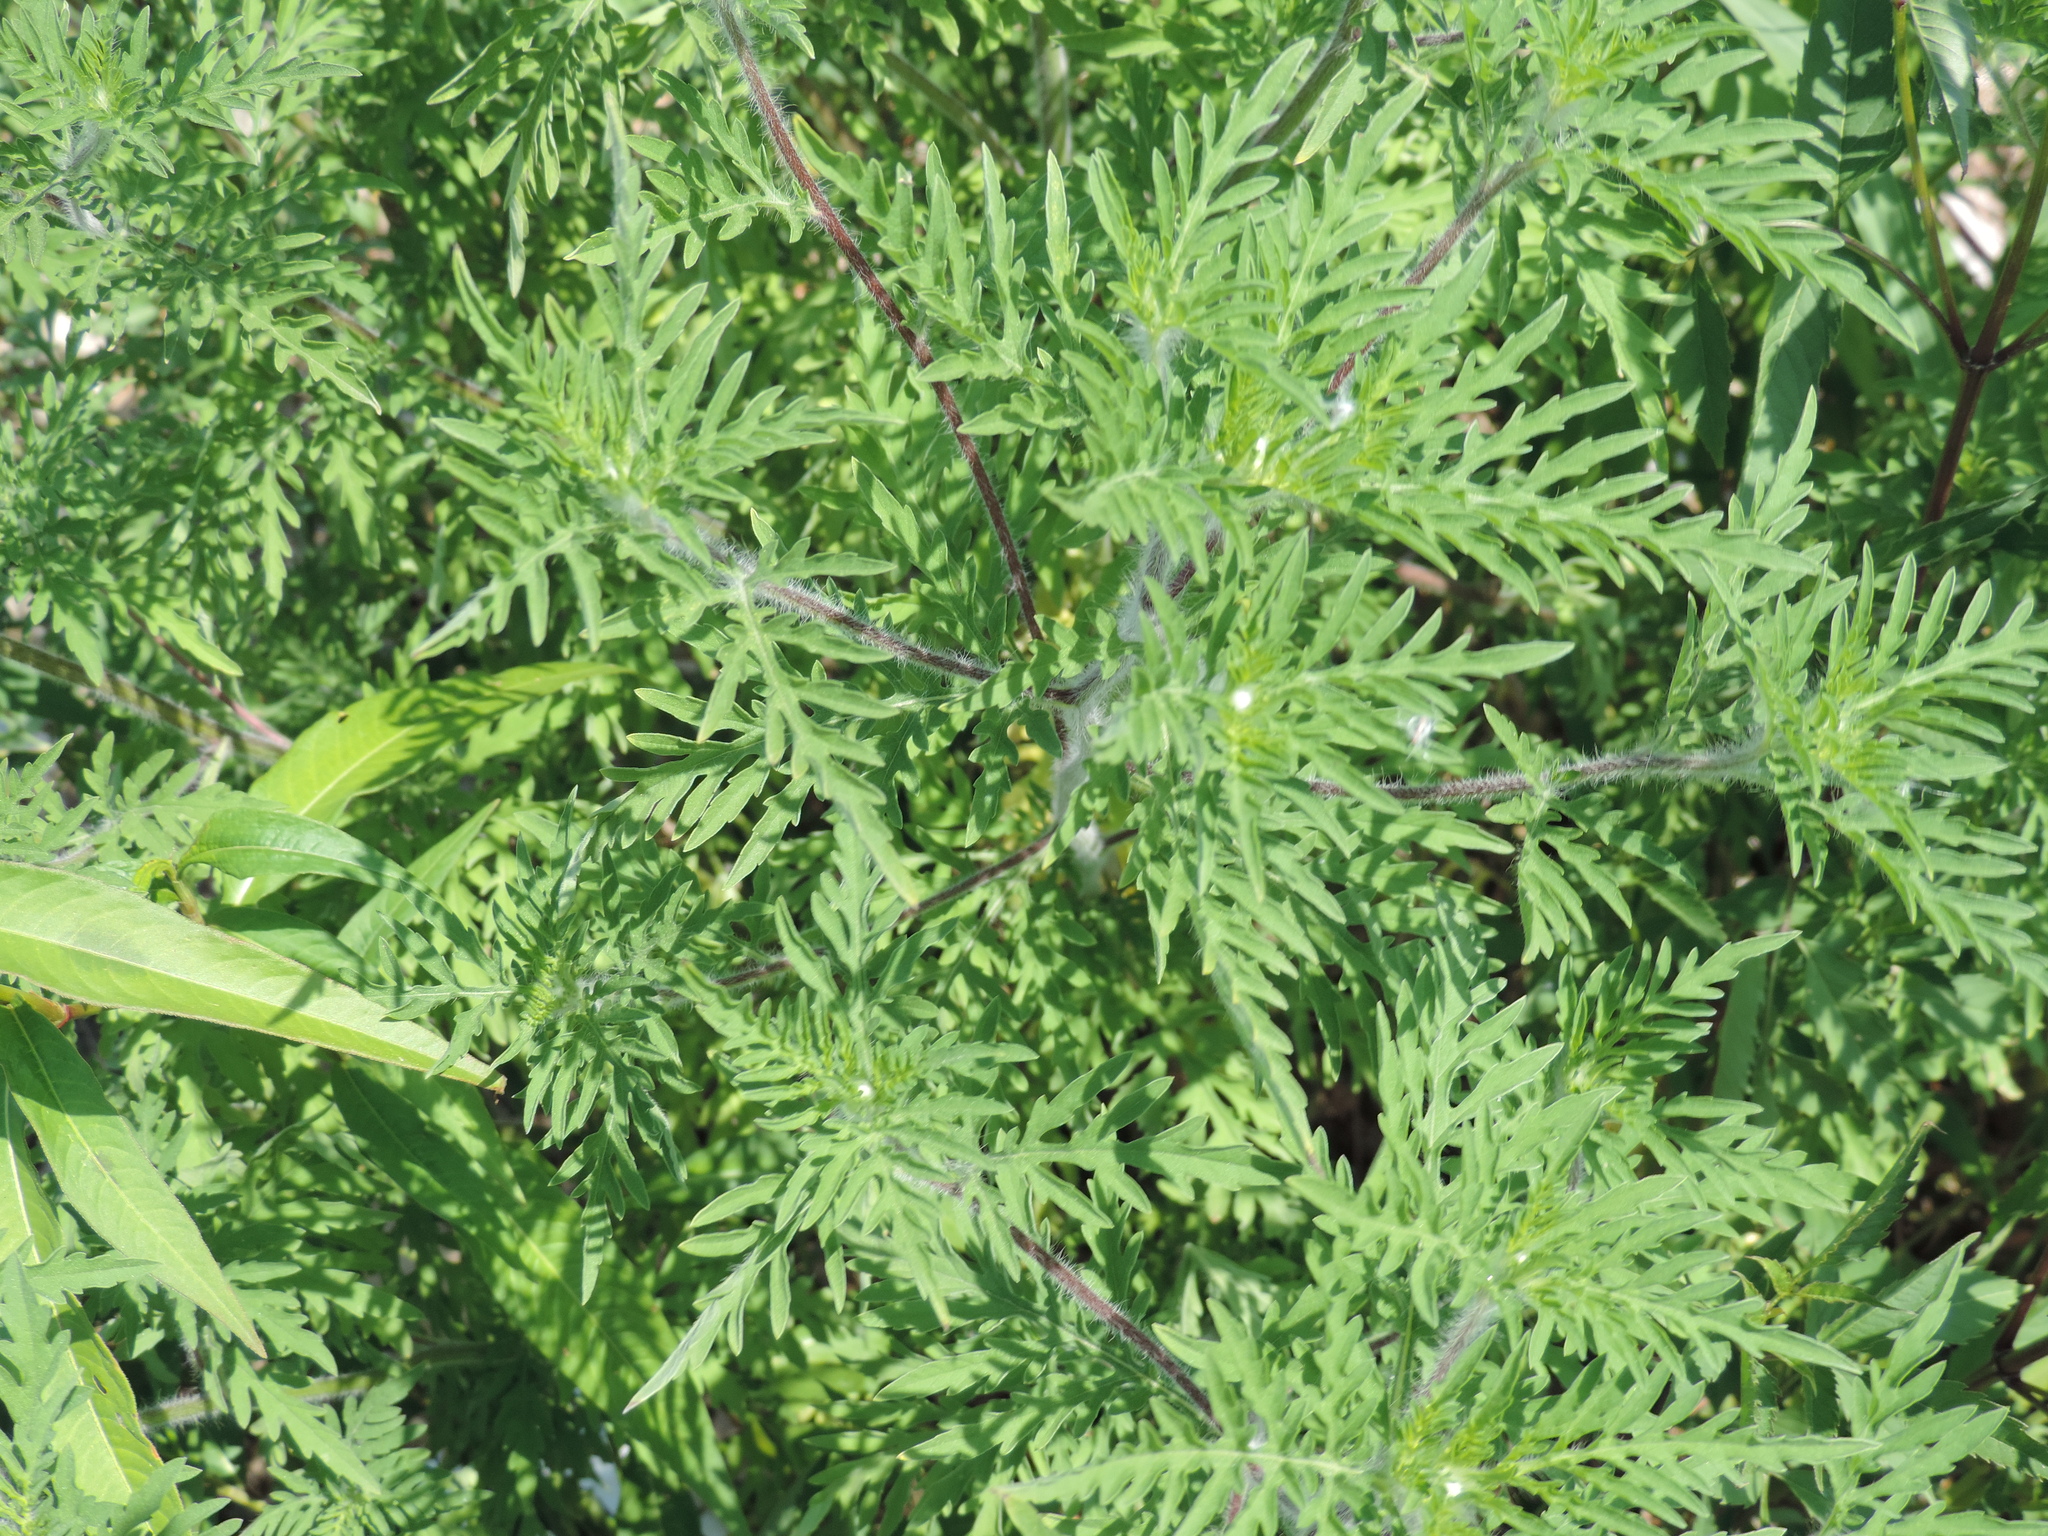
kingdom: Plantae
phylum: Tracheophyta
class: Magnoliopsida
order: Asterales
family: Asteraceae
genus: Ambrosia
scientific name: Ambrosia artemisiifolia
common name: Annual ragweed
